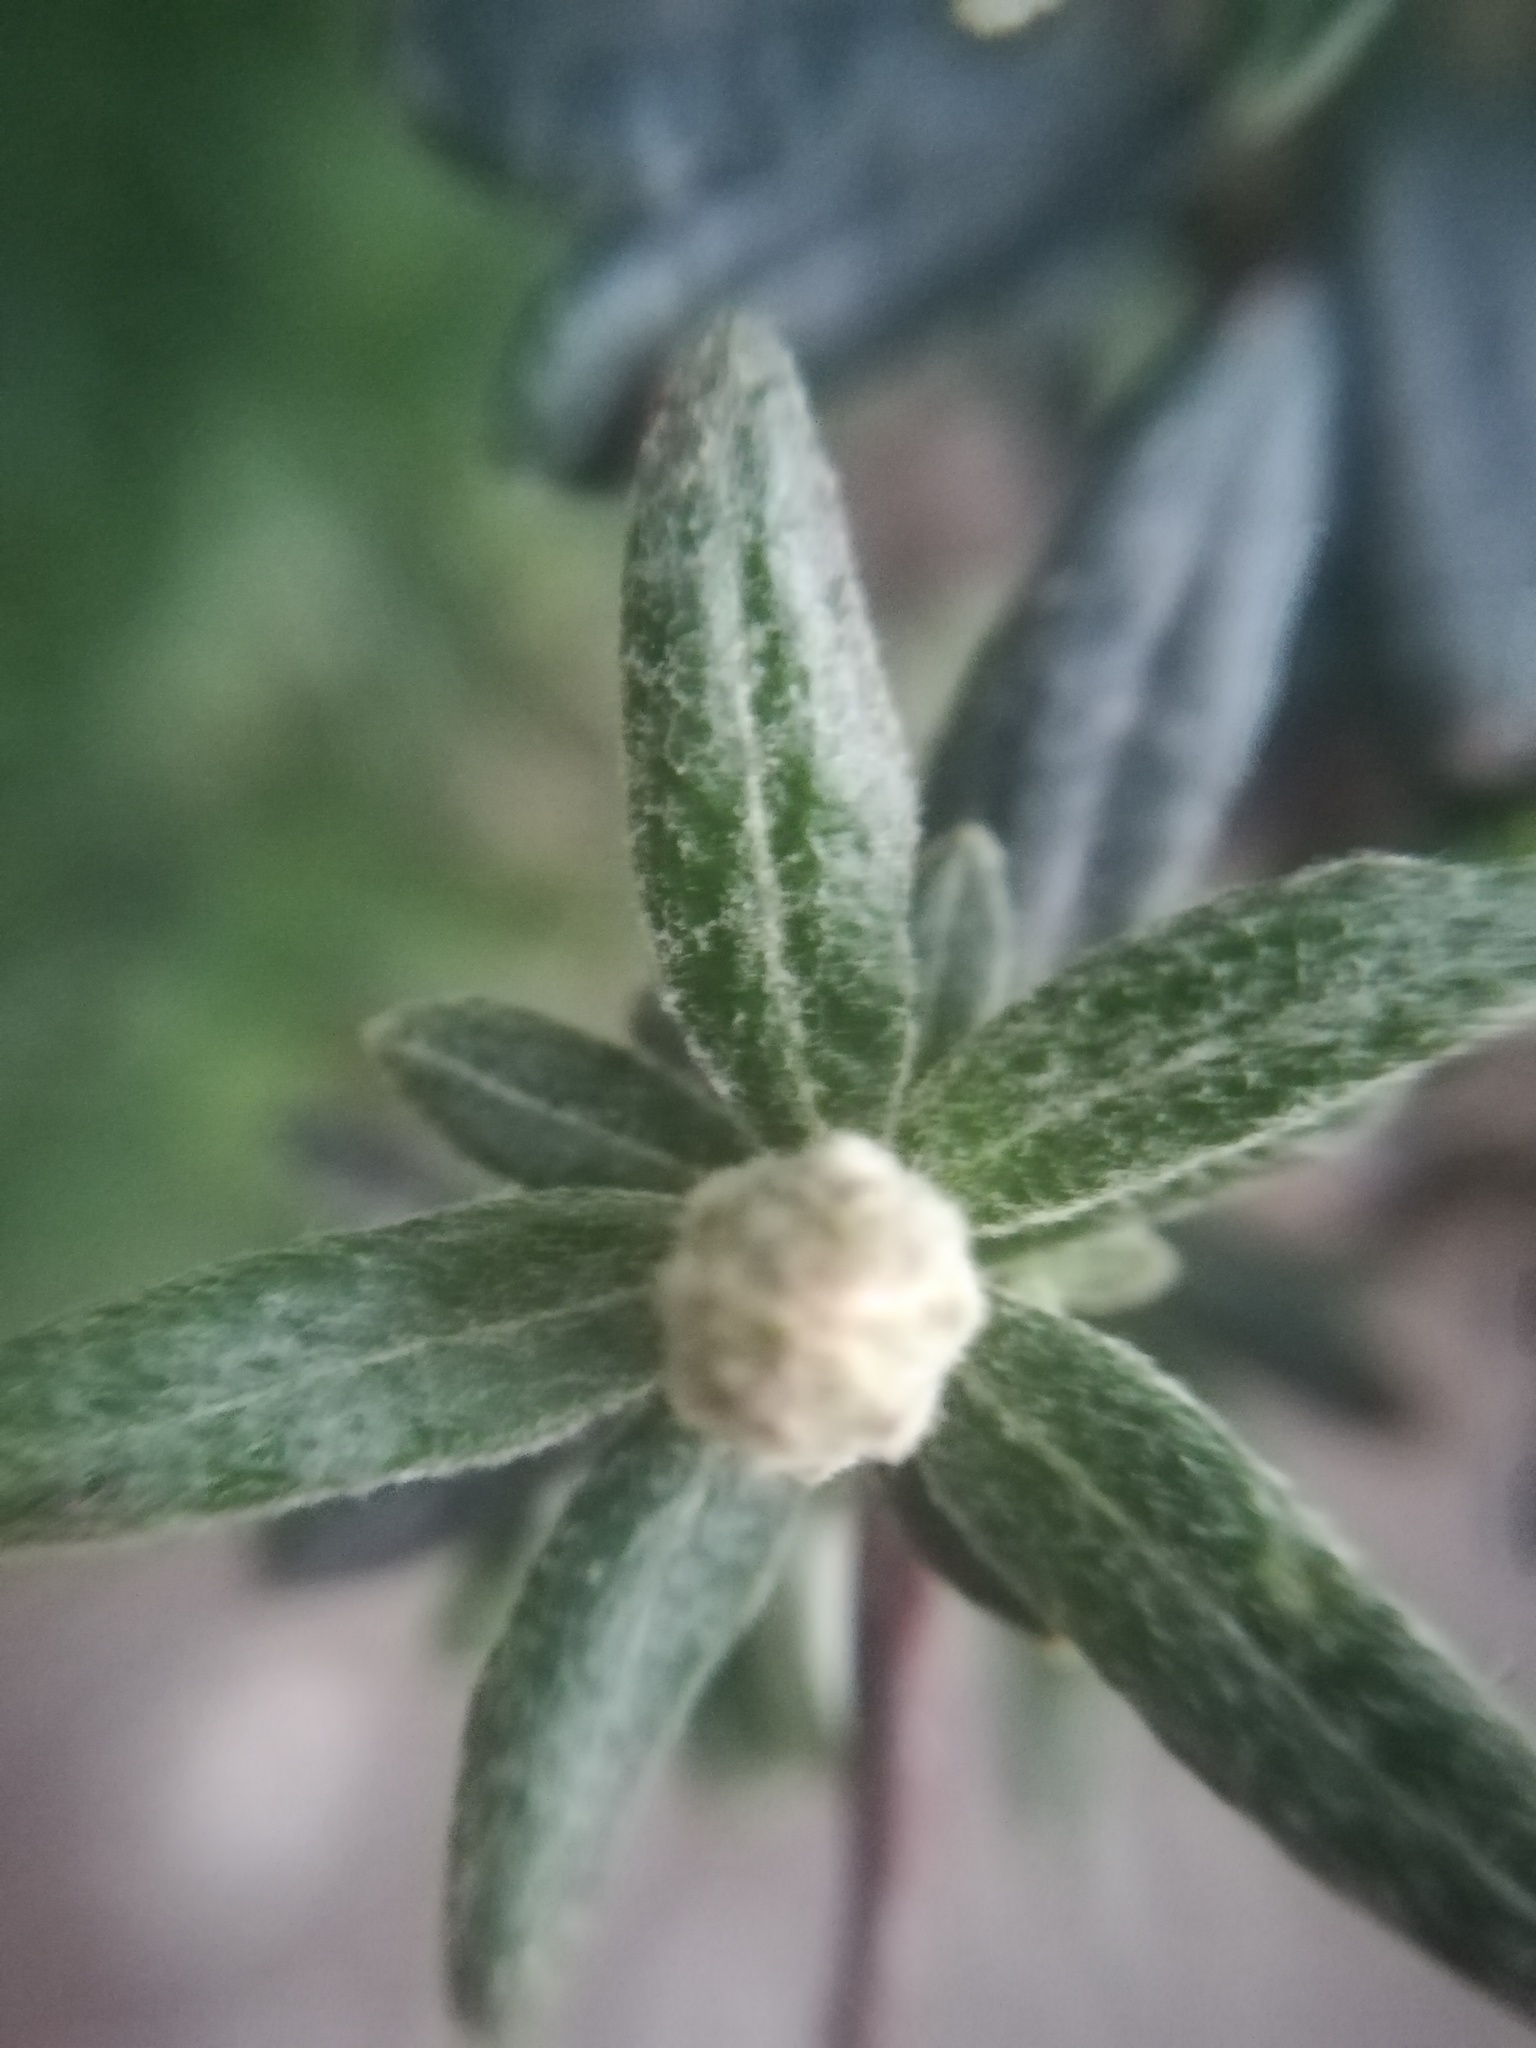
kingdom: Plantae
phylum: Tracheophyta
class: Magnoliopsida
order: Asterales
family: Asteraceae
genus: Chiliotrichum
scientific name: Chiliotrichum diffusum
